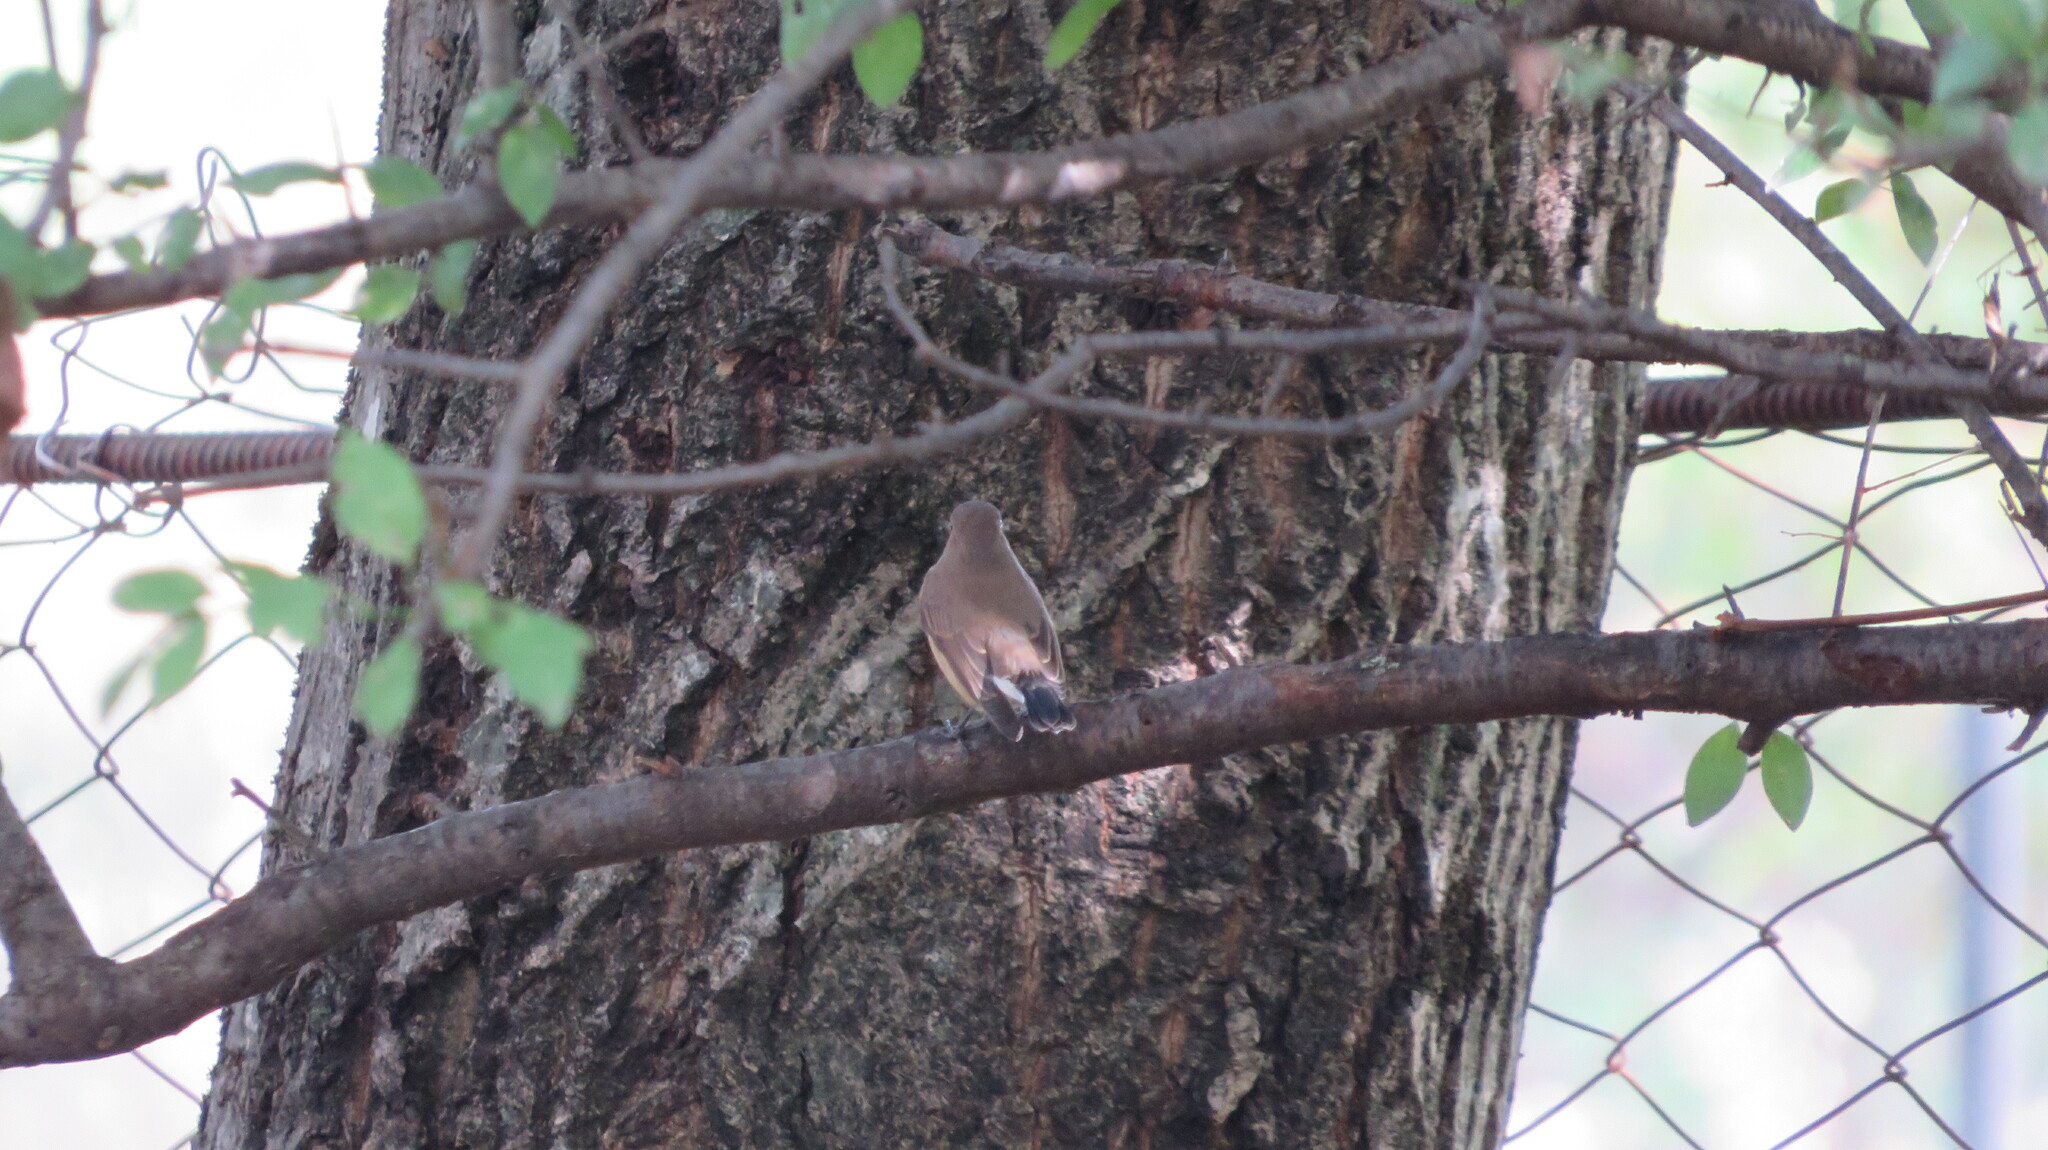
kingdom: Animalia
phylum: Chordata
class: Aves
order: Passeriformes
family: Muscicapidae
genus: Ficedula
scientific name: Ficedula parva
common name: Red-breasted flycatcher
